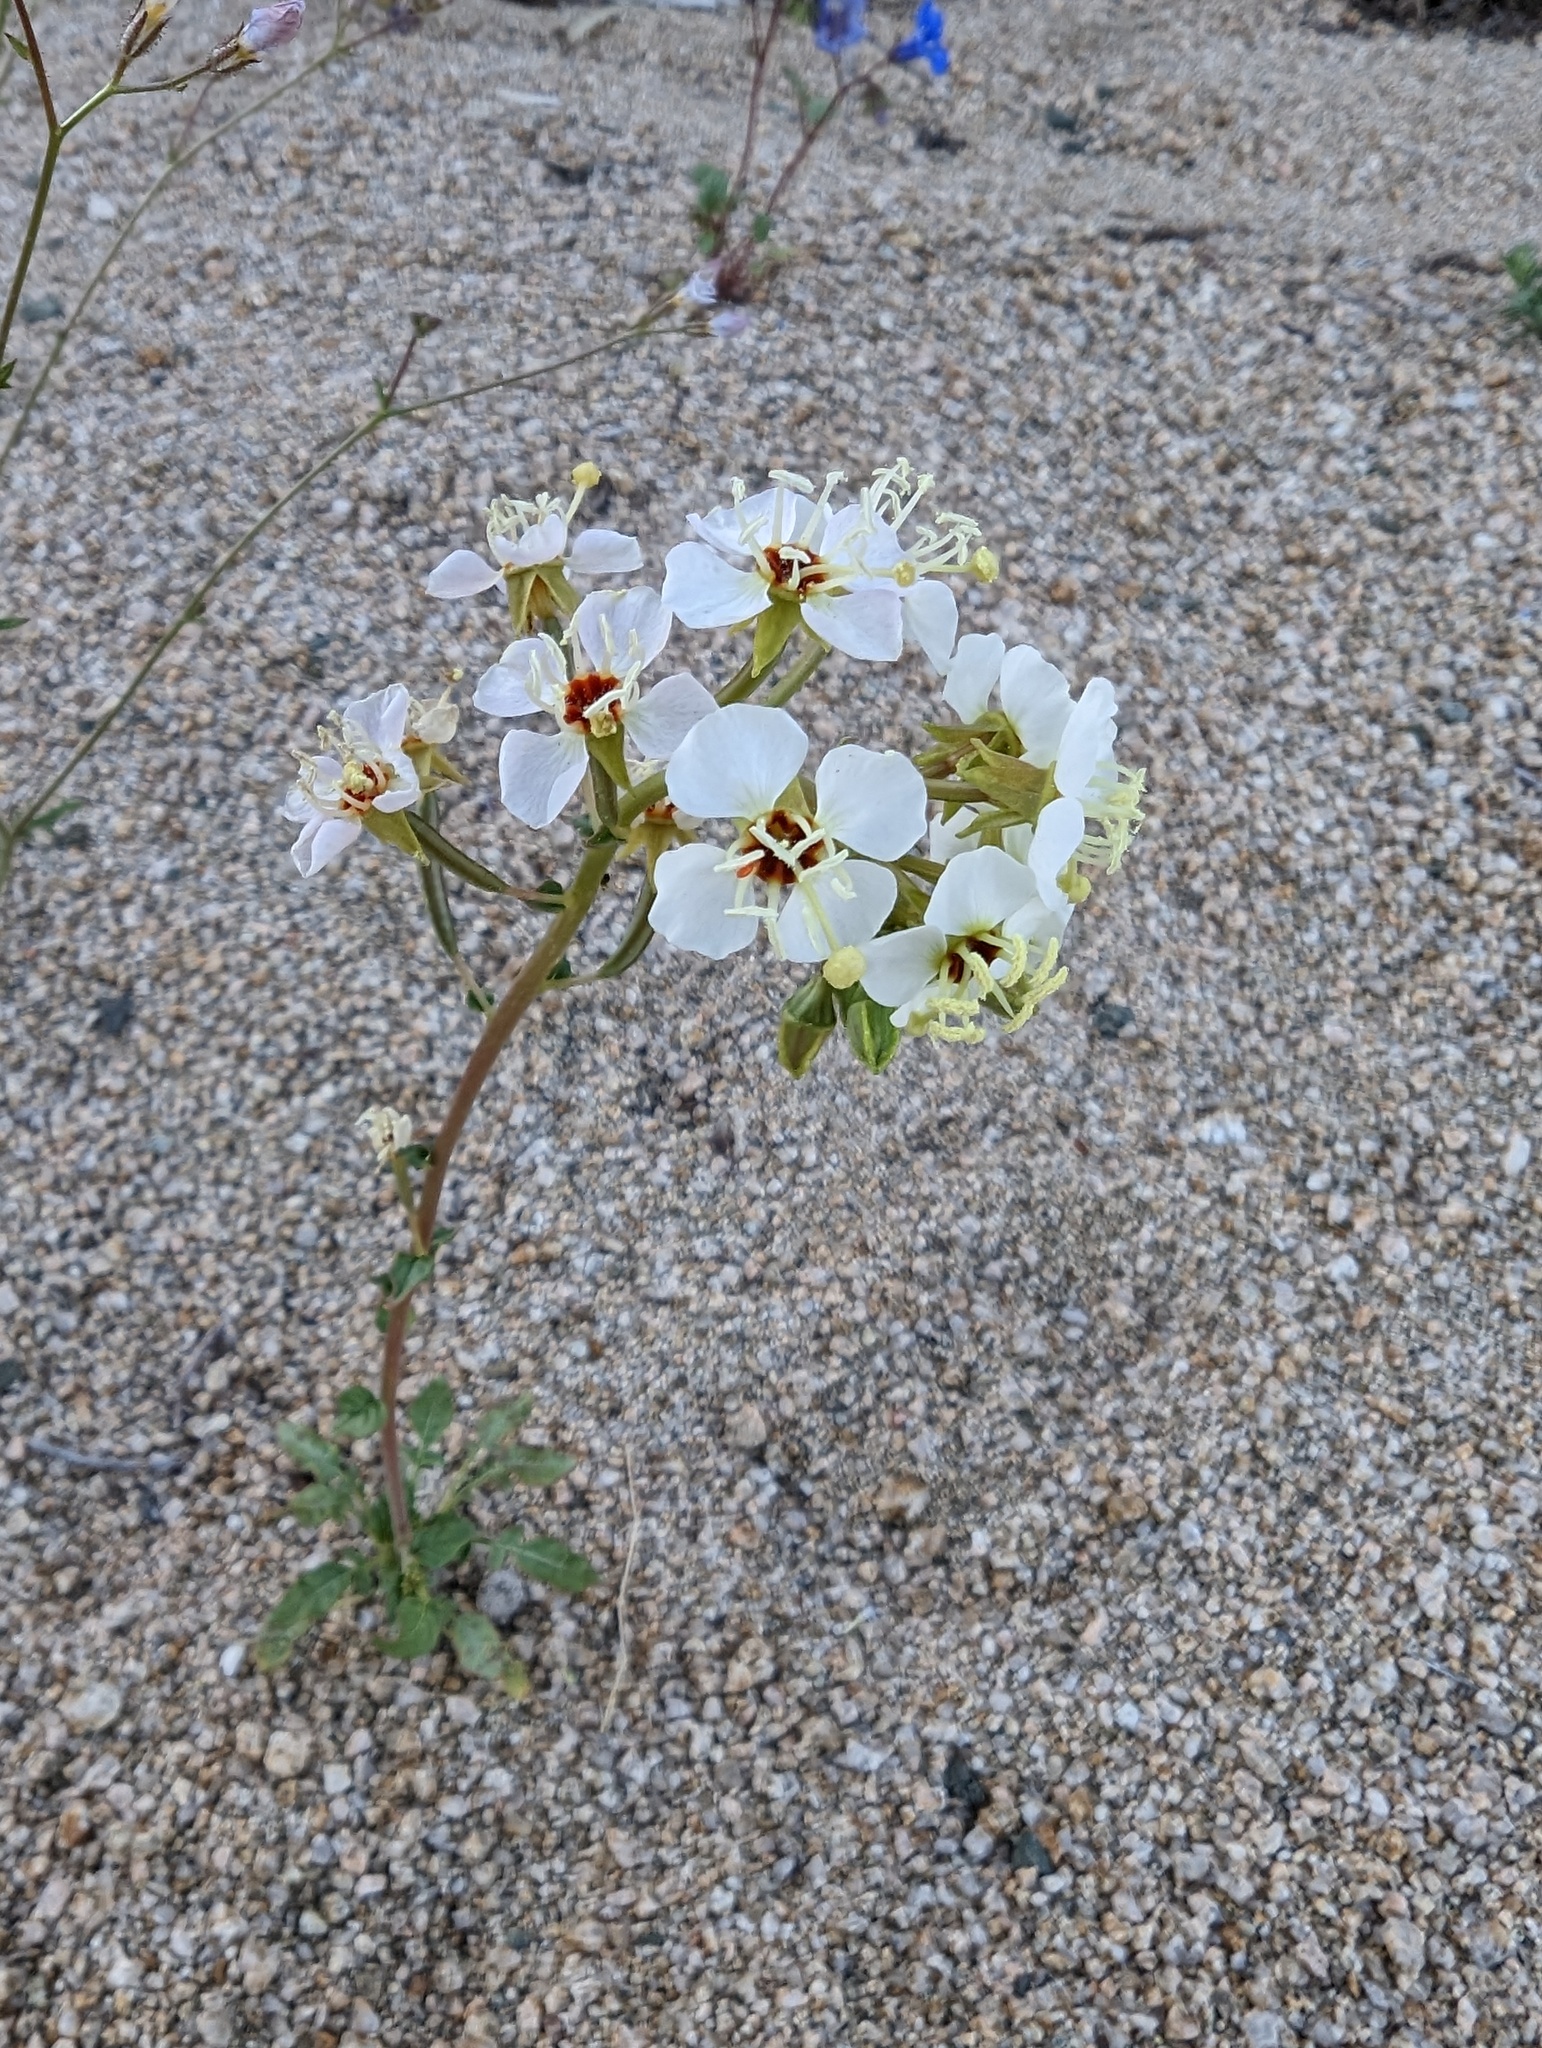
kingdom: Plantae
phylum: Tracheophyta
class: Magnoliopsida
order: Myrtales
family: Onagraceae
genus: Chylismia
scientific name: Chylismia claviformis
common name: Browneyes
